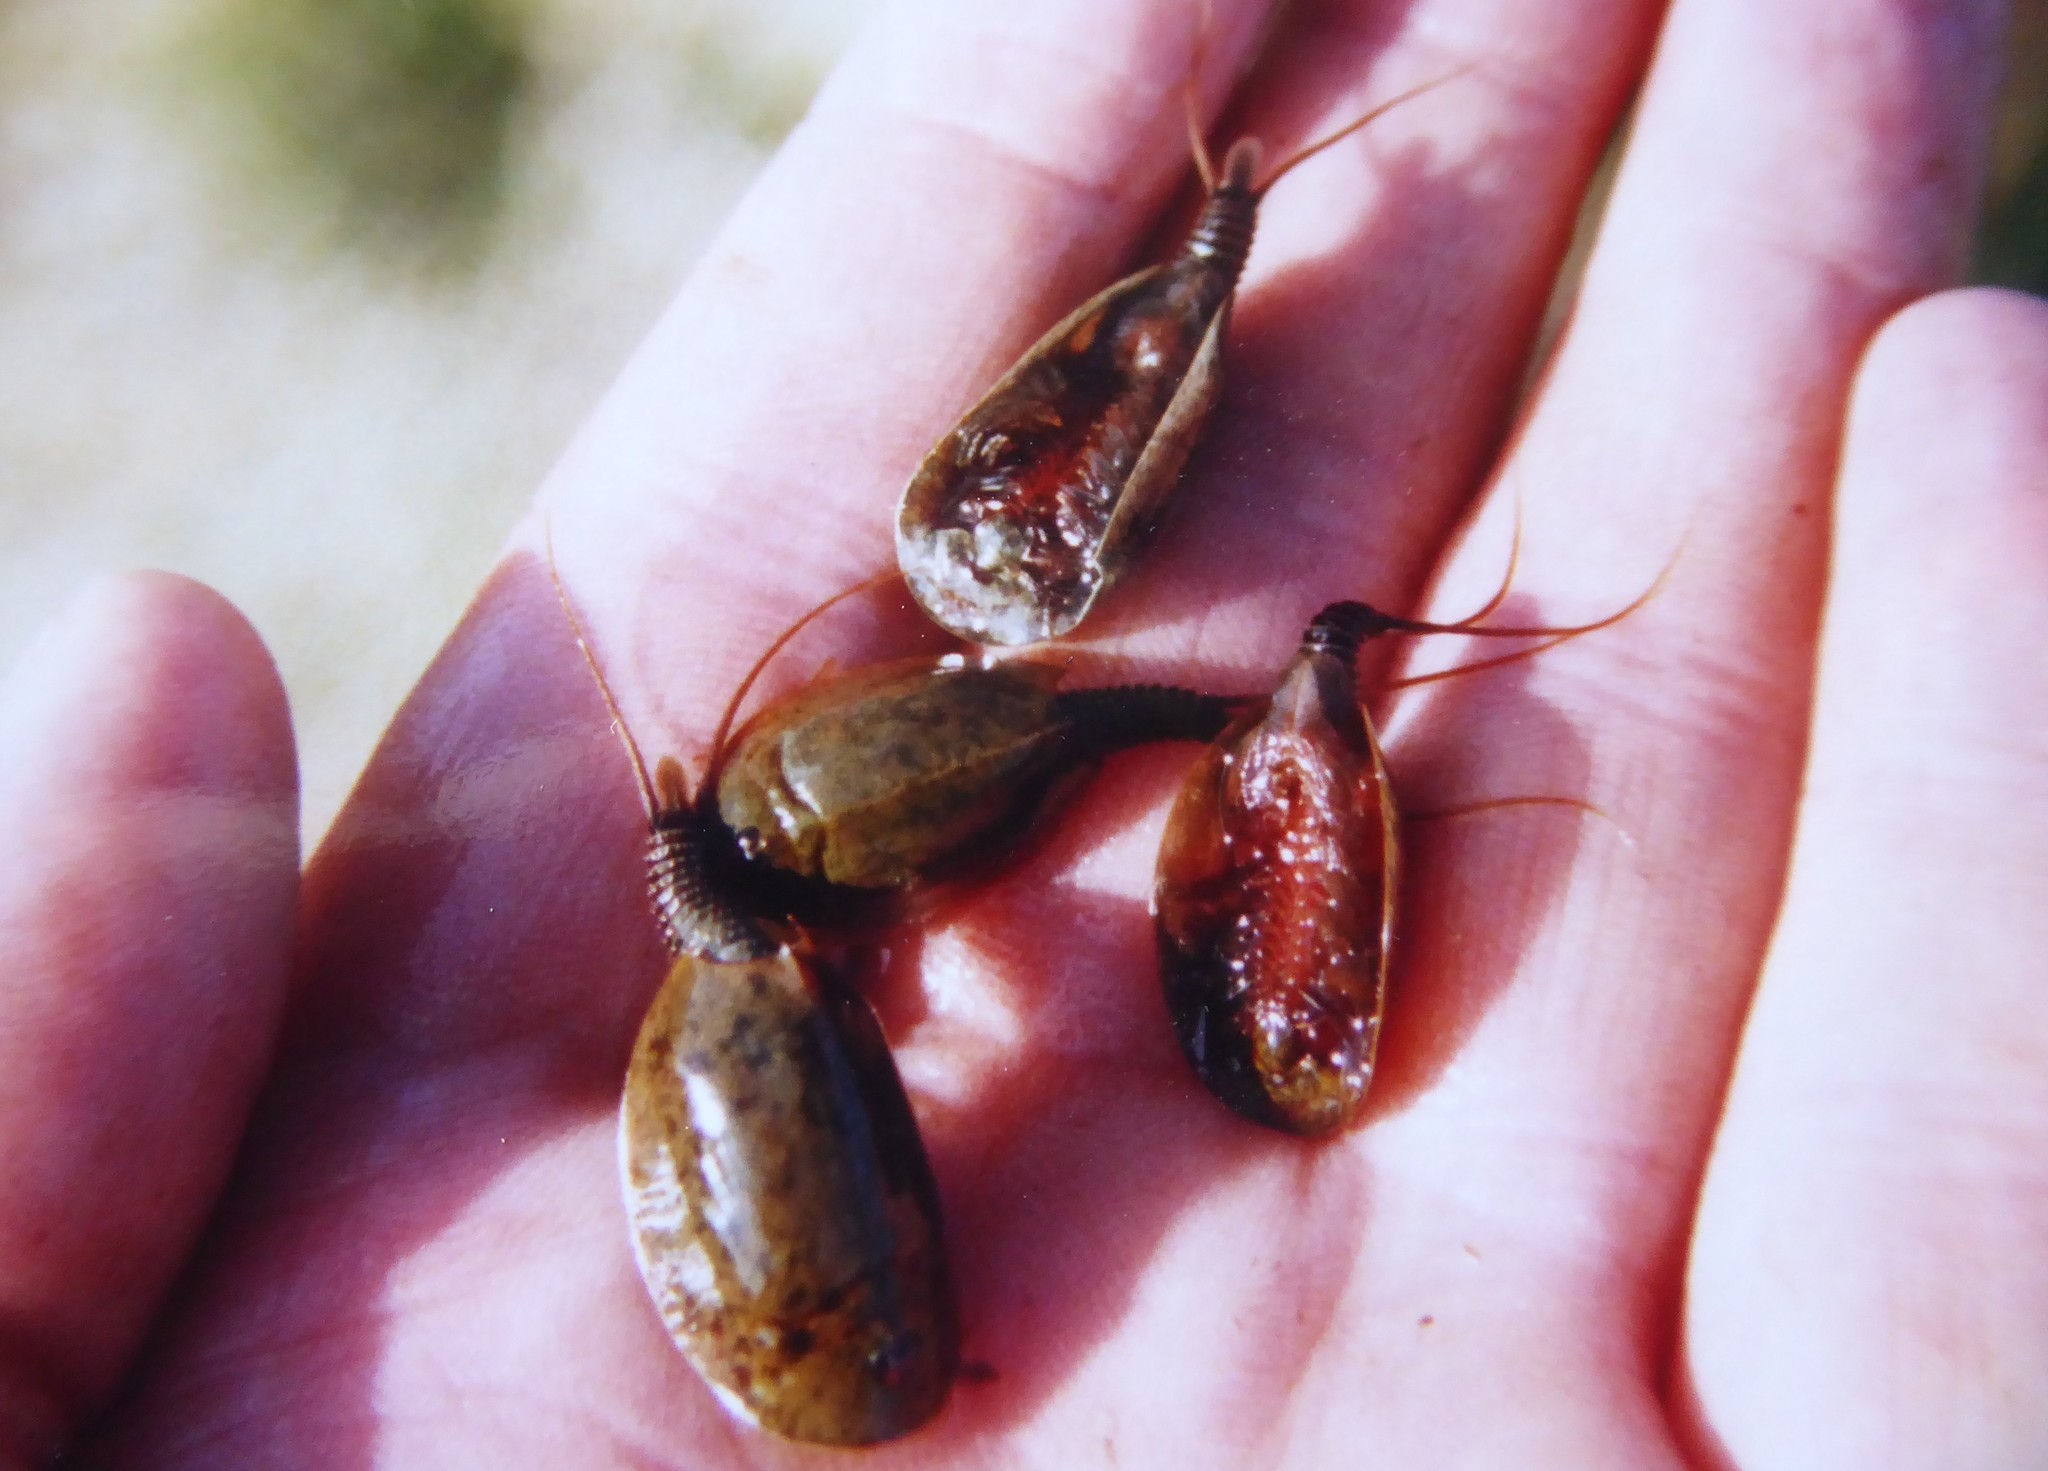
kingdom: Animalia
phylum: Arthropoda
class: Branchiopoda
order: Notostraca
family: Triopsidae
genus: Lepidurus
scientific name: Lepidurus apus
